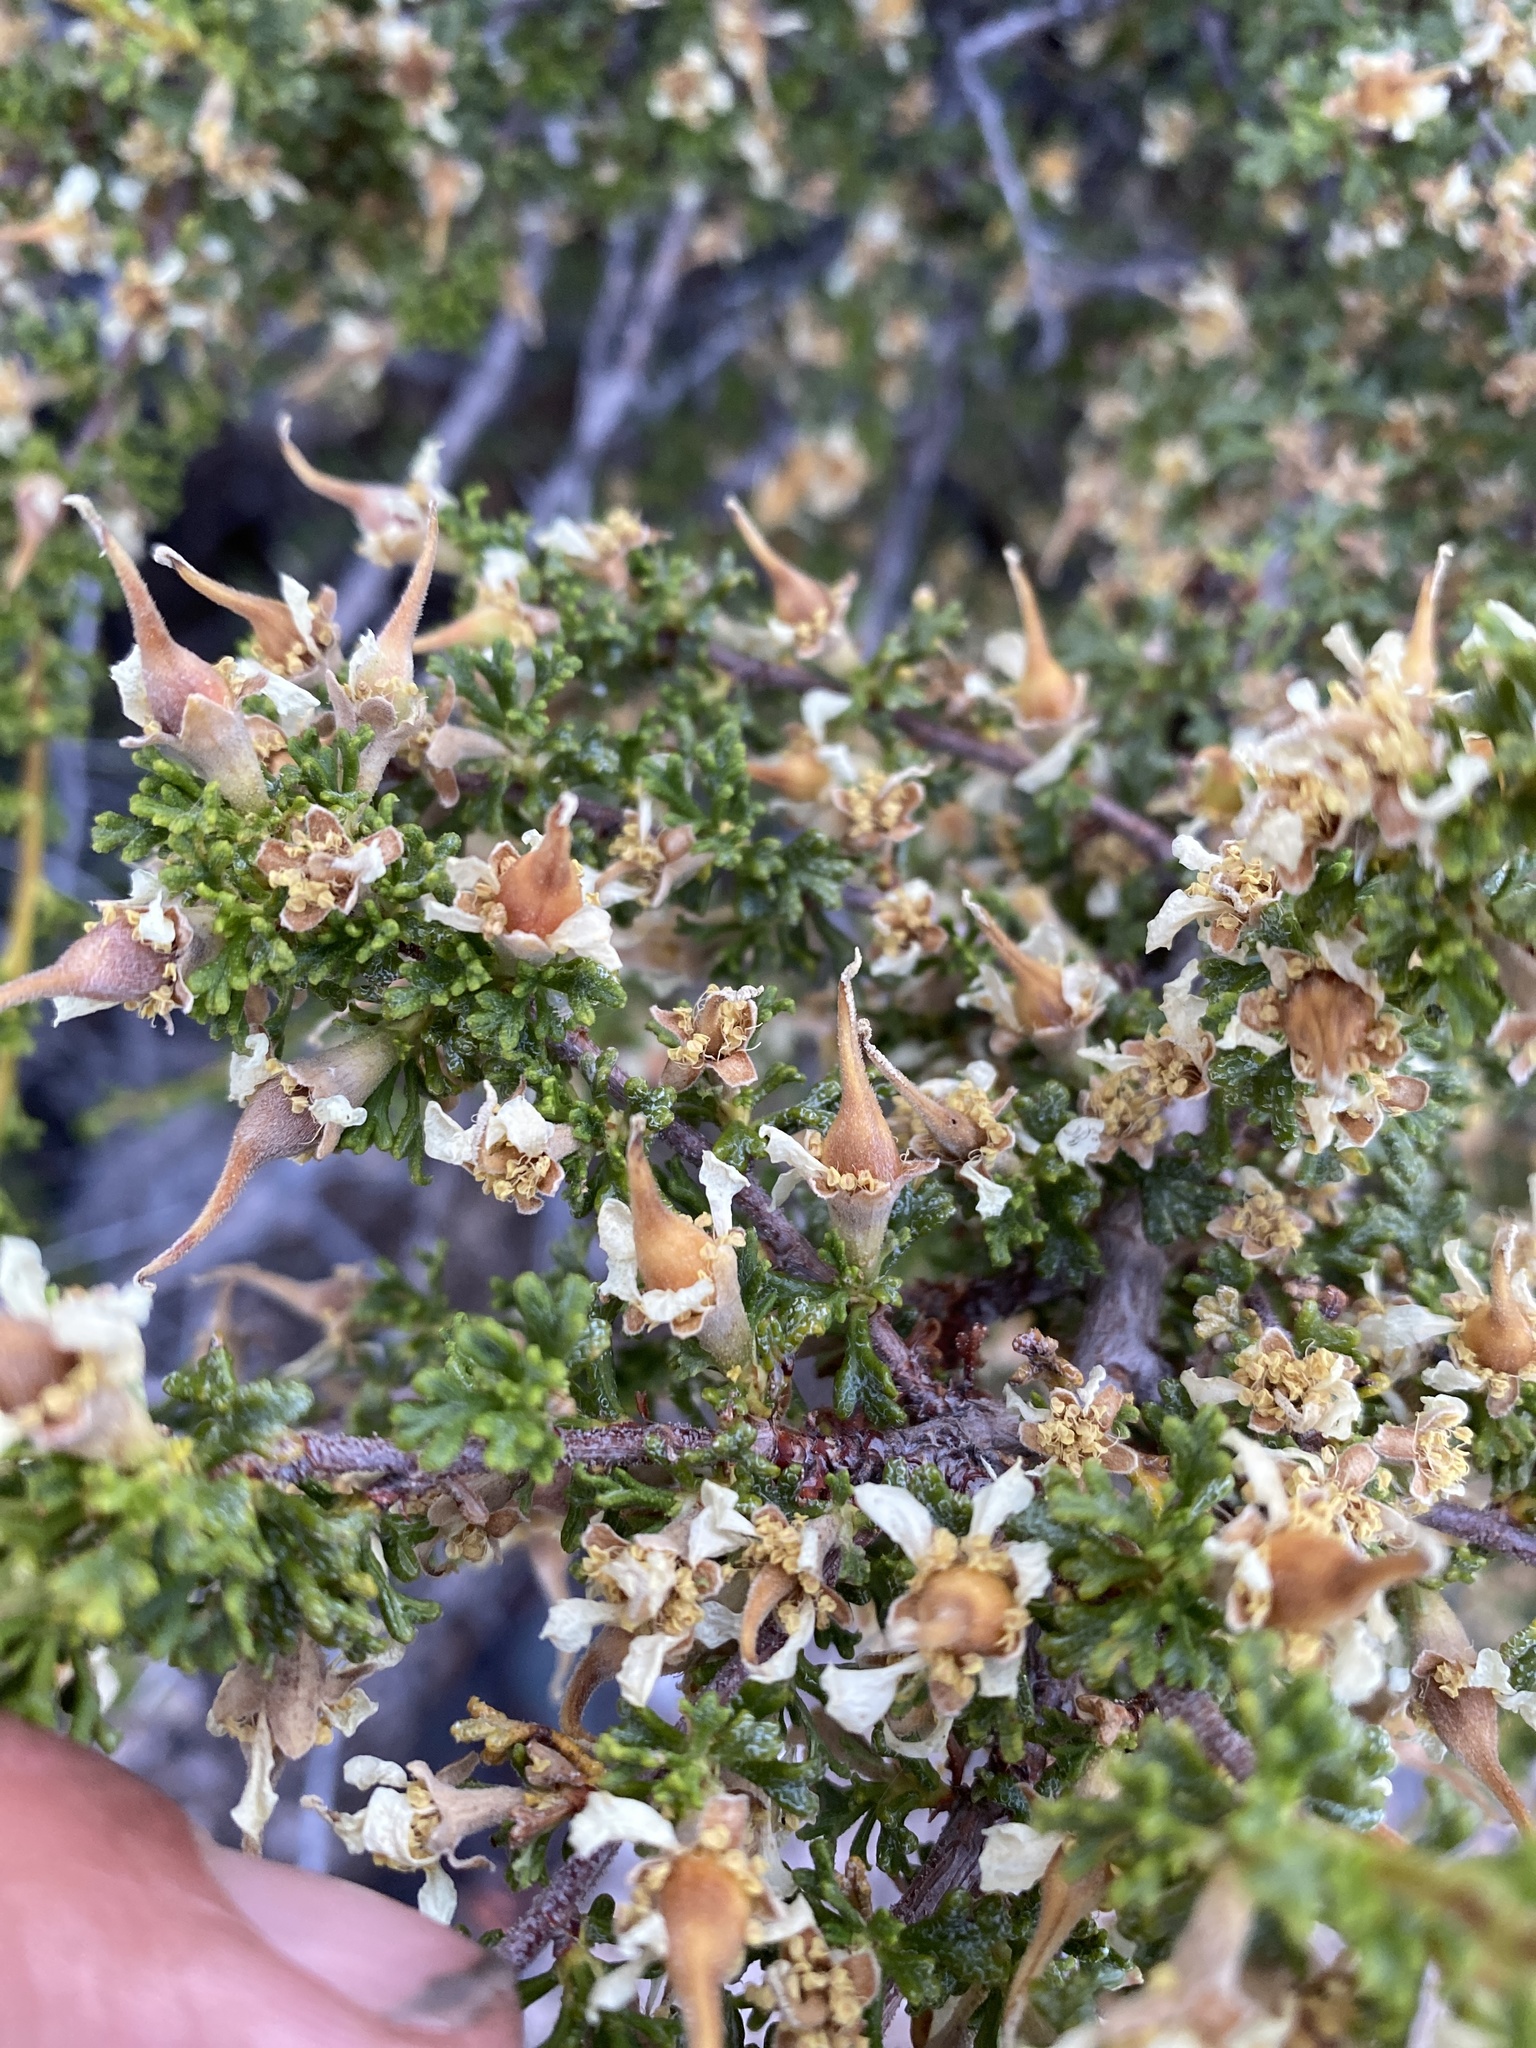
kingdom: Plantae
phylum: Tracheophyta
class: Magnoliopsida
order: Rosales
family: Rosaceae
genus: Purshia
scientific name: Purshia glandulosa
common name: Desert bitterbrush
